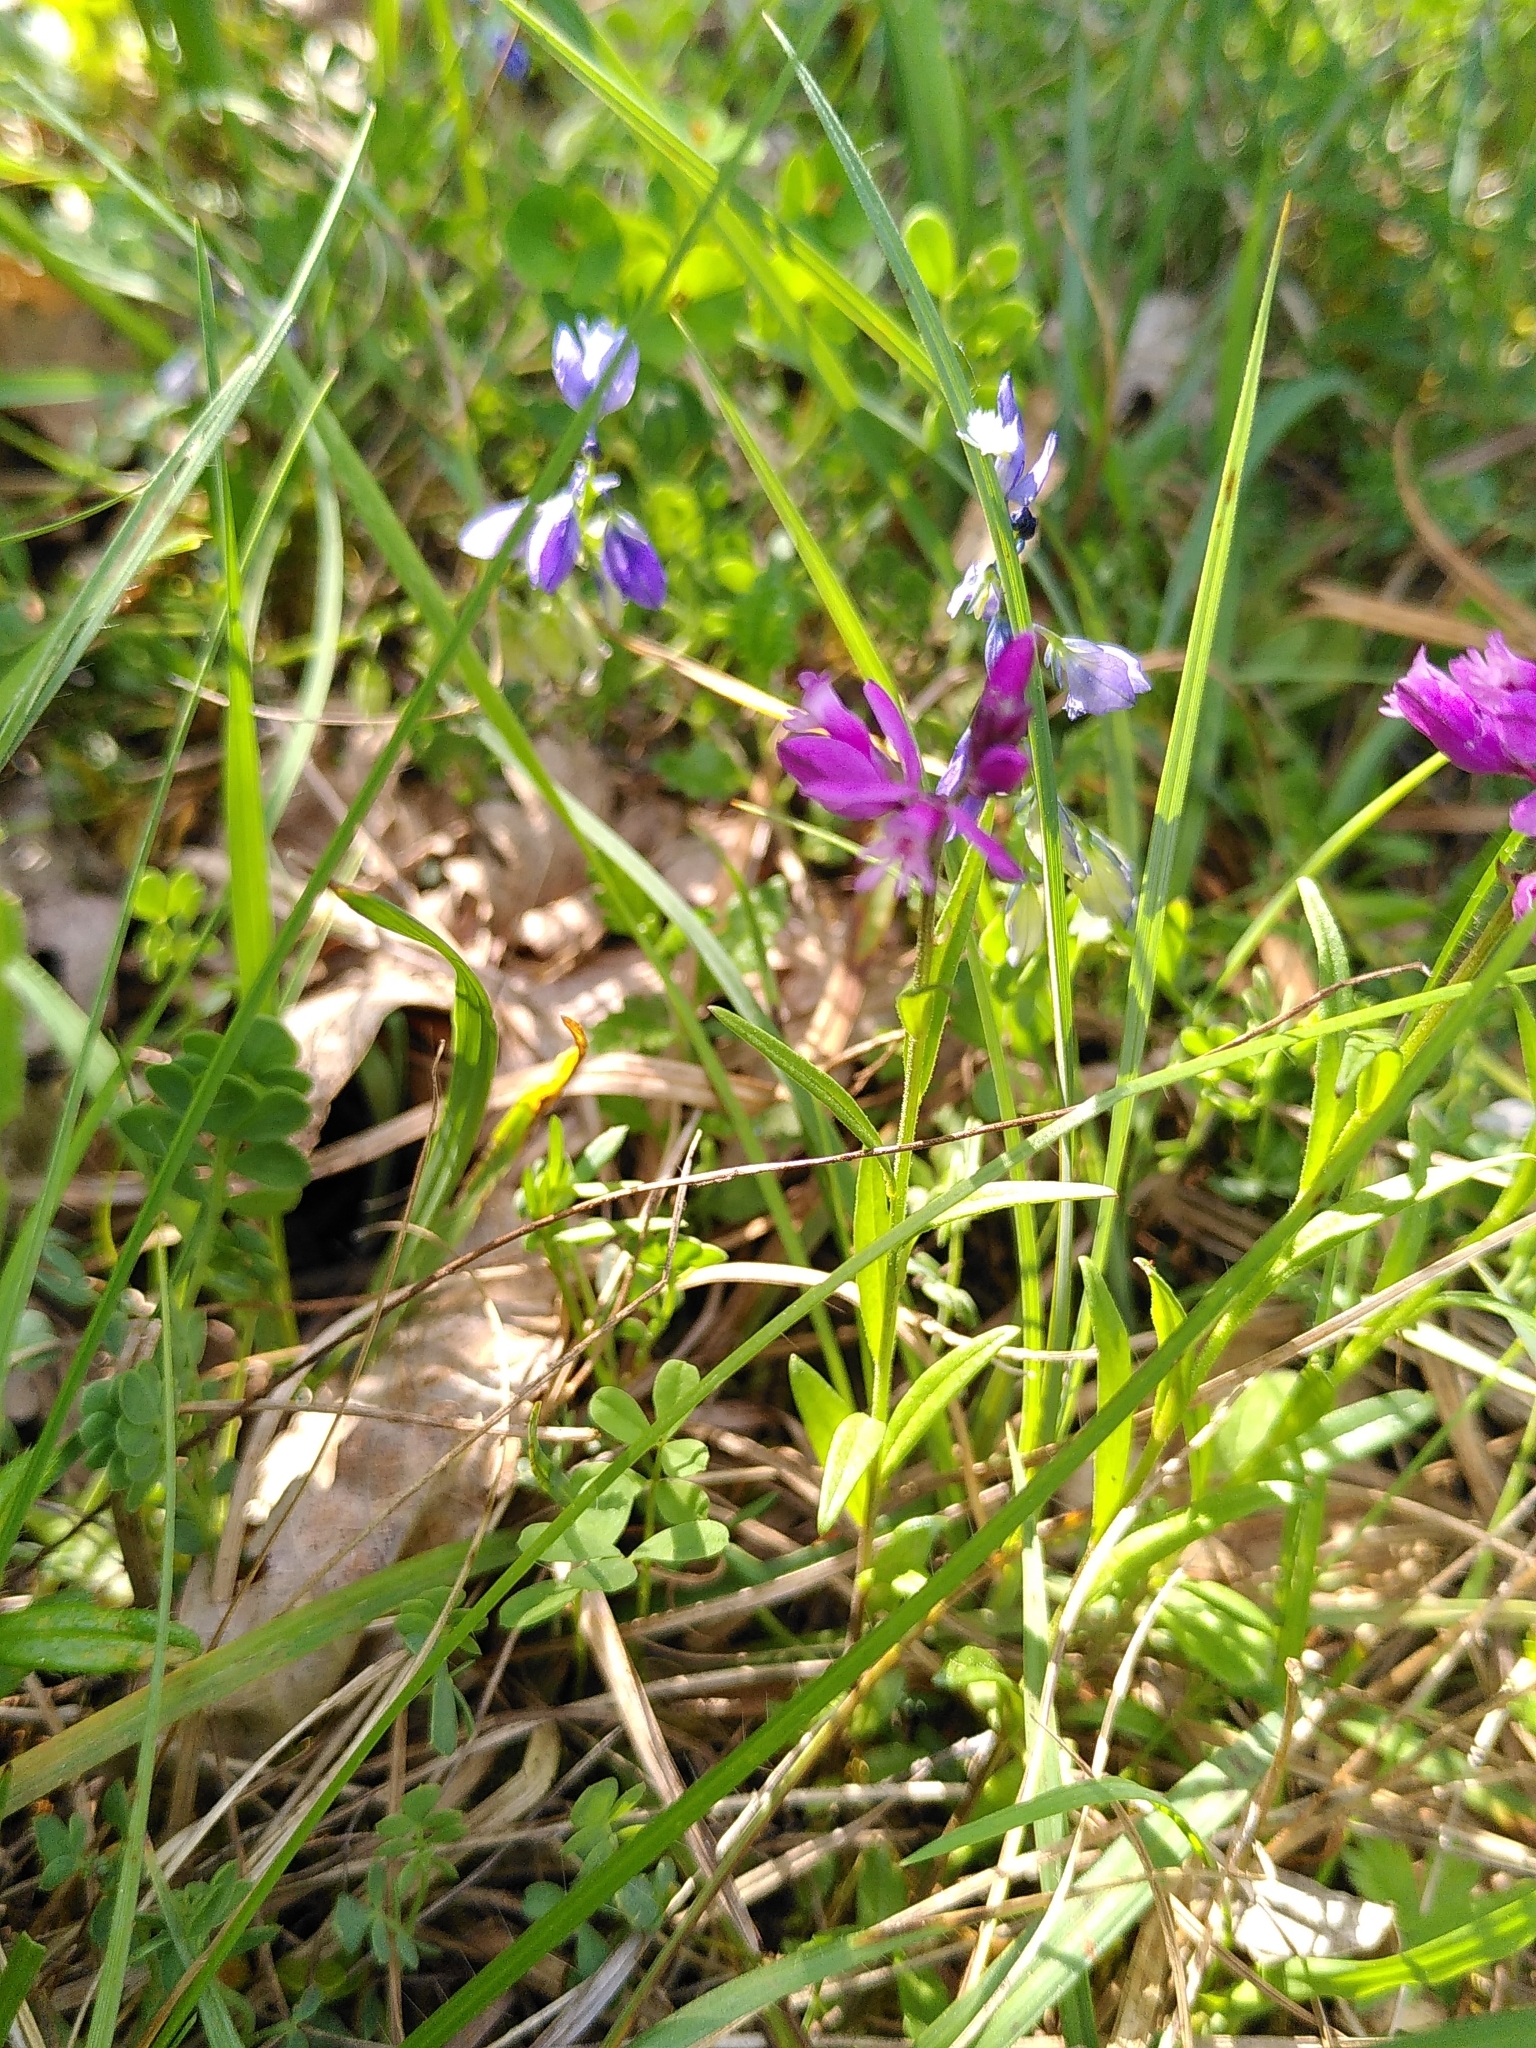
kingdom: Plantae
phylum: Tracheophyta
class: Magnoliopsida
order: Fabales
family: Polygalaceae
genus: Polygala
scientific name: Polygala vulgaris
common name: Common milkwort
